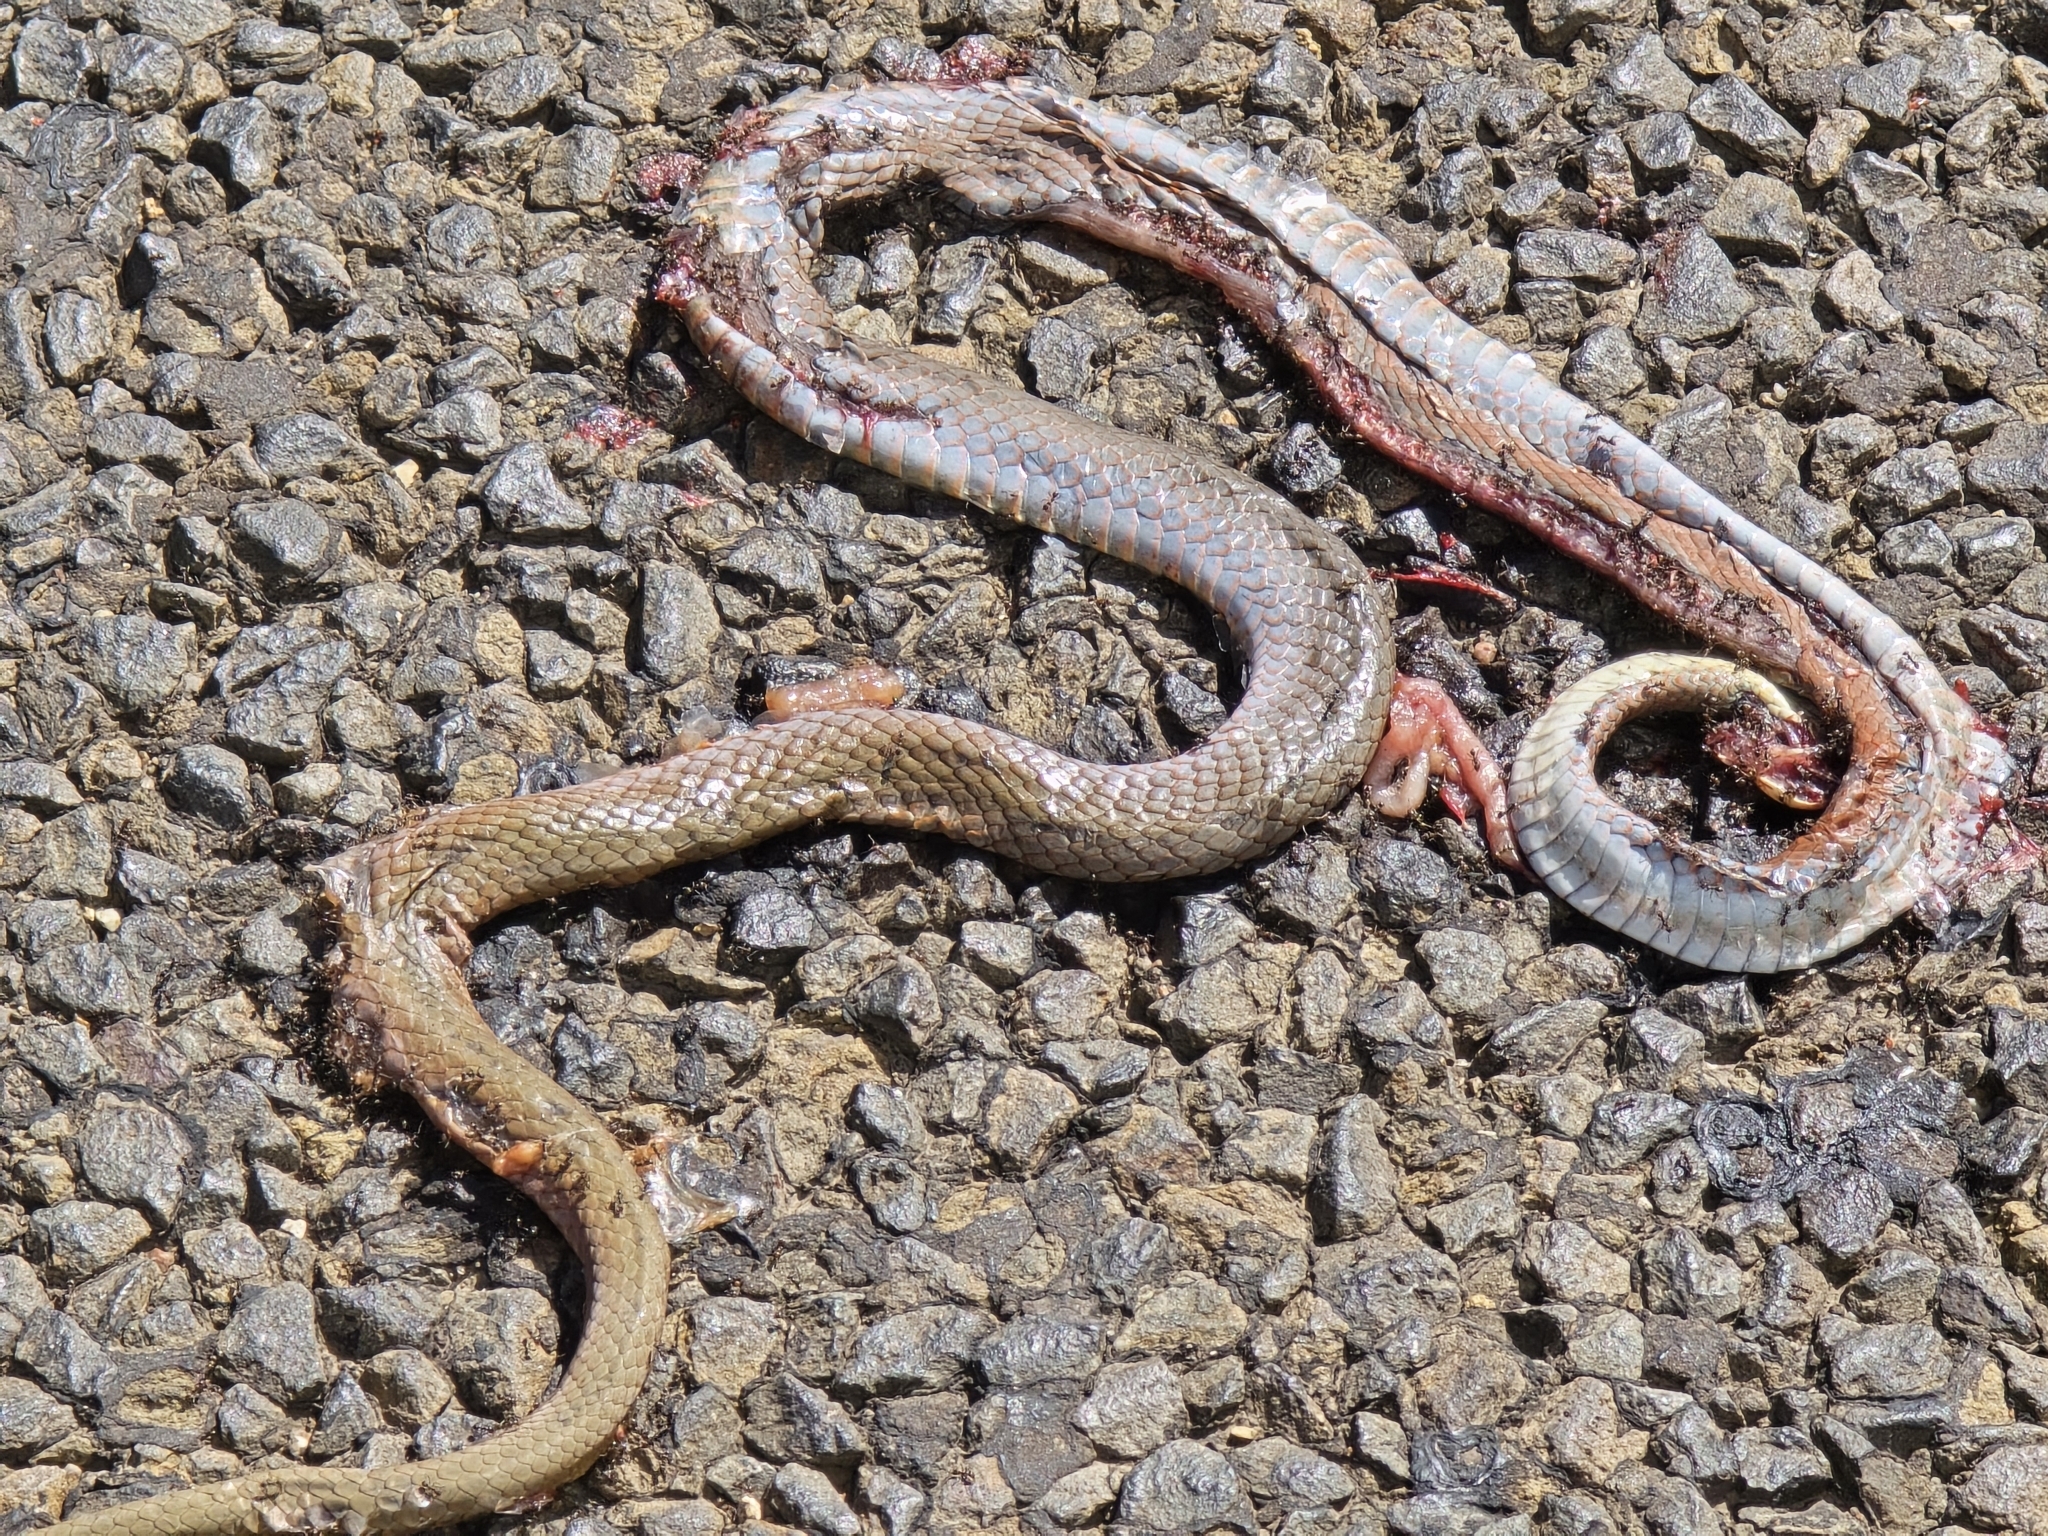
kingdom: Animalia
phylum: Chordata
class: Squamata
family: Elapidae
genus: Demansia
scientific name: Demansia psammophis
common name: Yellow-faced whip snake
